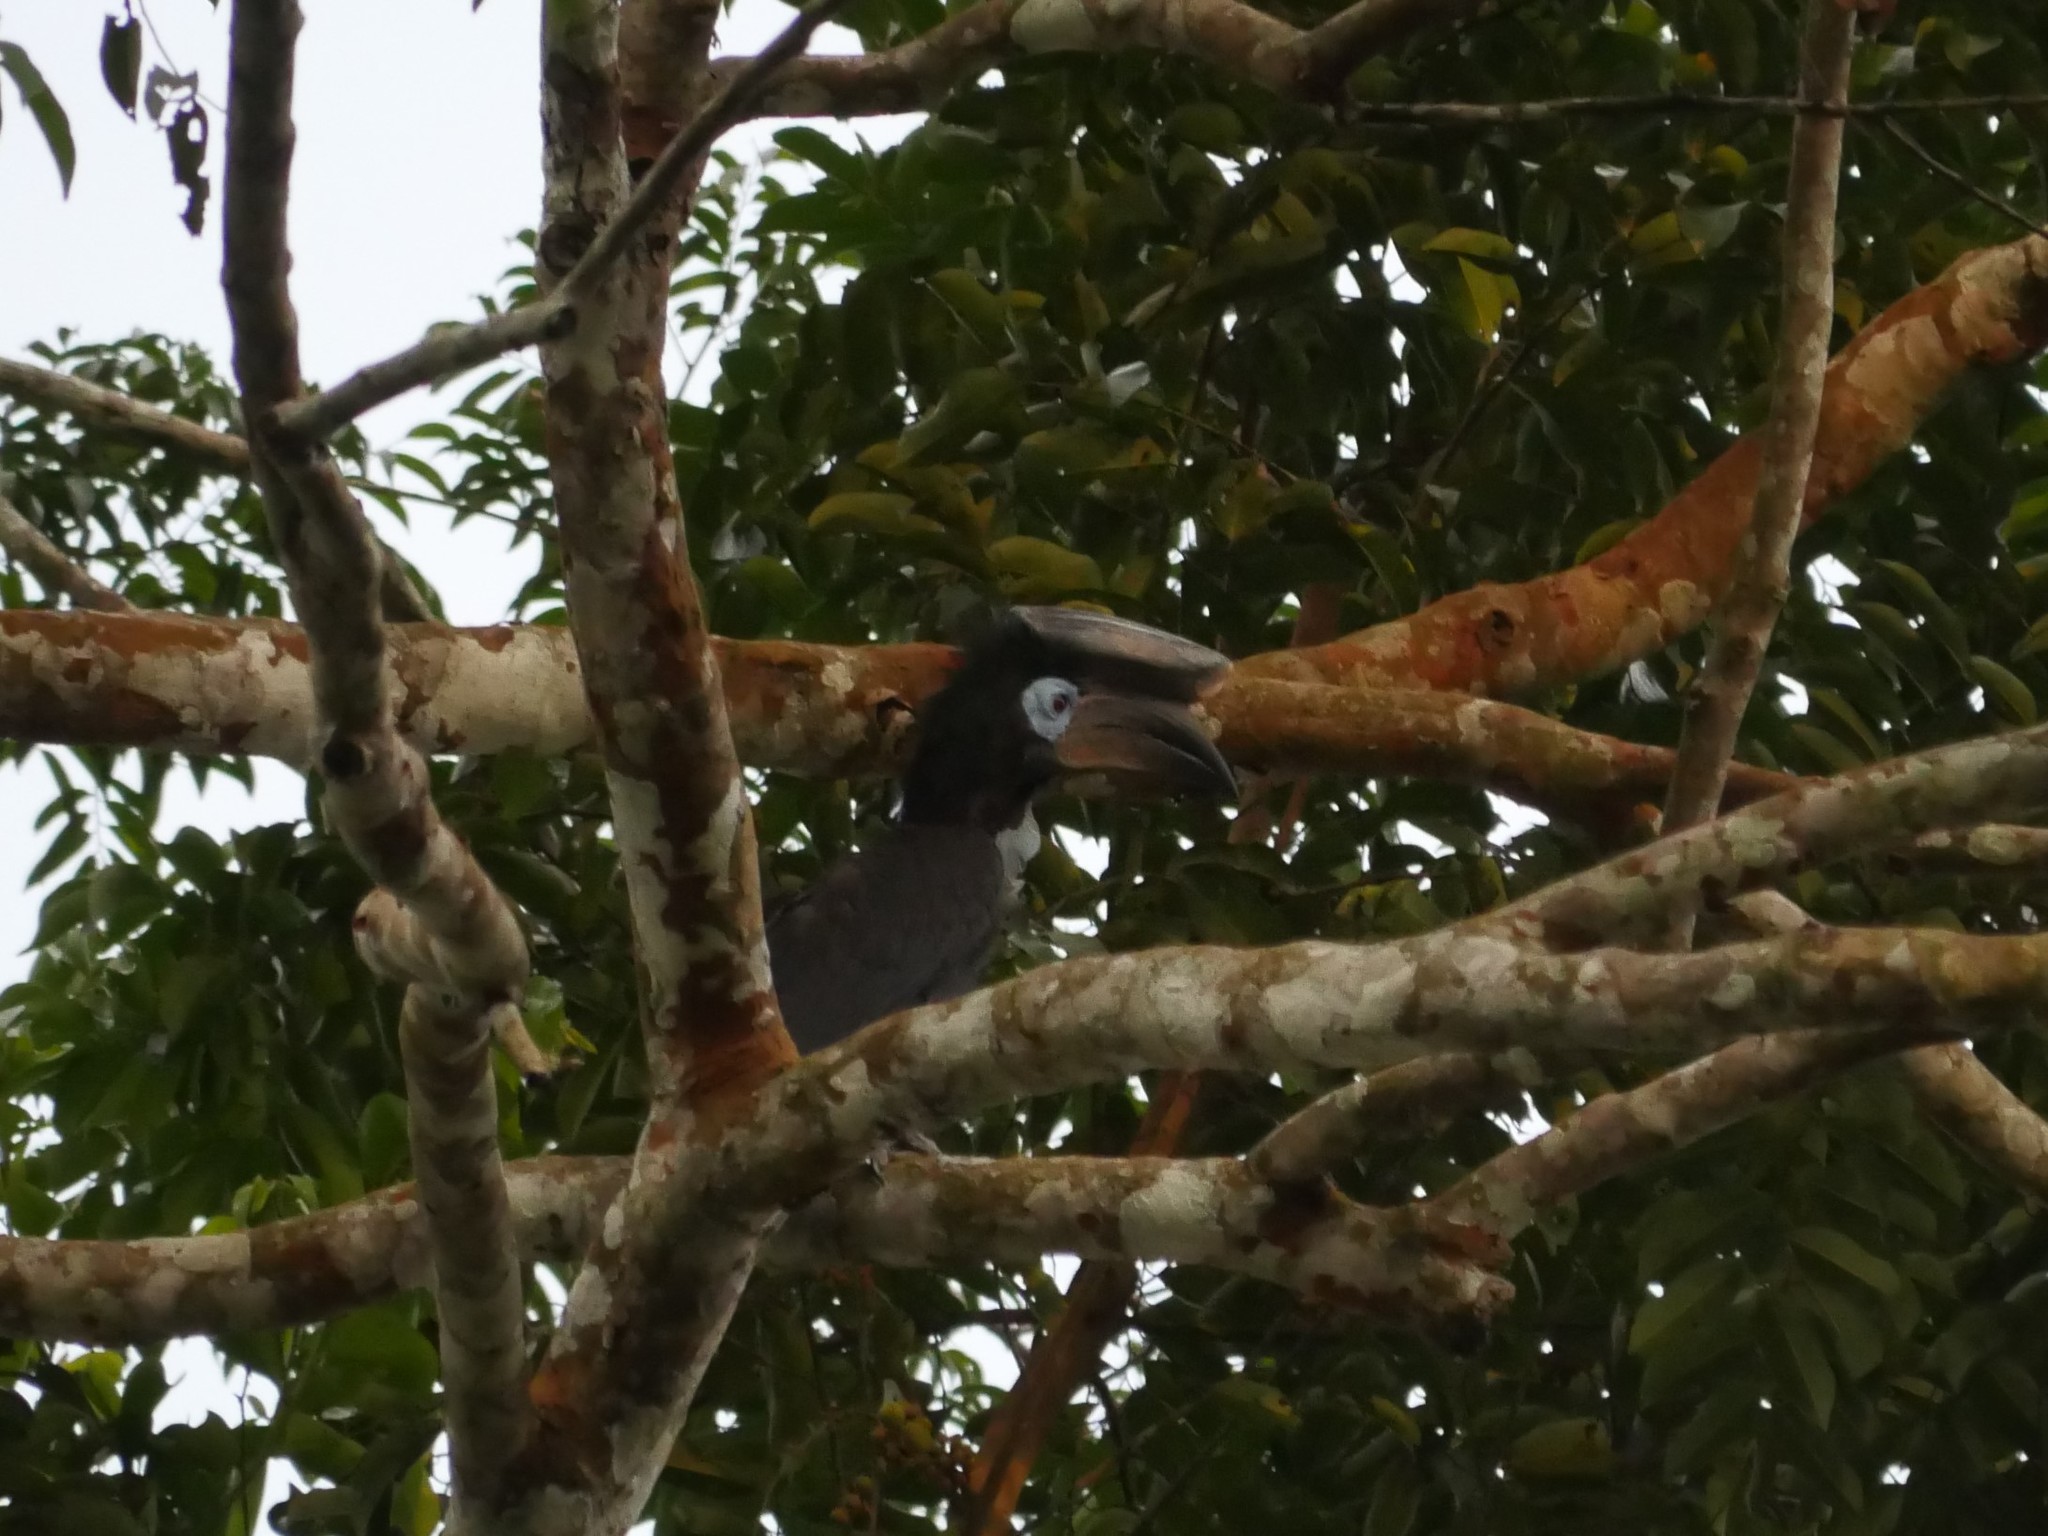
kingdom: Animalia
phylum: Chordata
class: Aves
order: Bucerotiformes
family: Bucerotidae
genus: Ceratogymna
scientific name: Ceratogymna atrata
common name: Black-casqued hornbill
